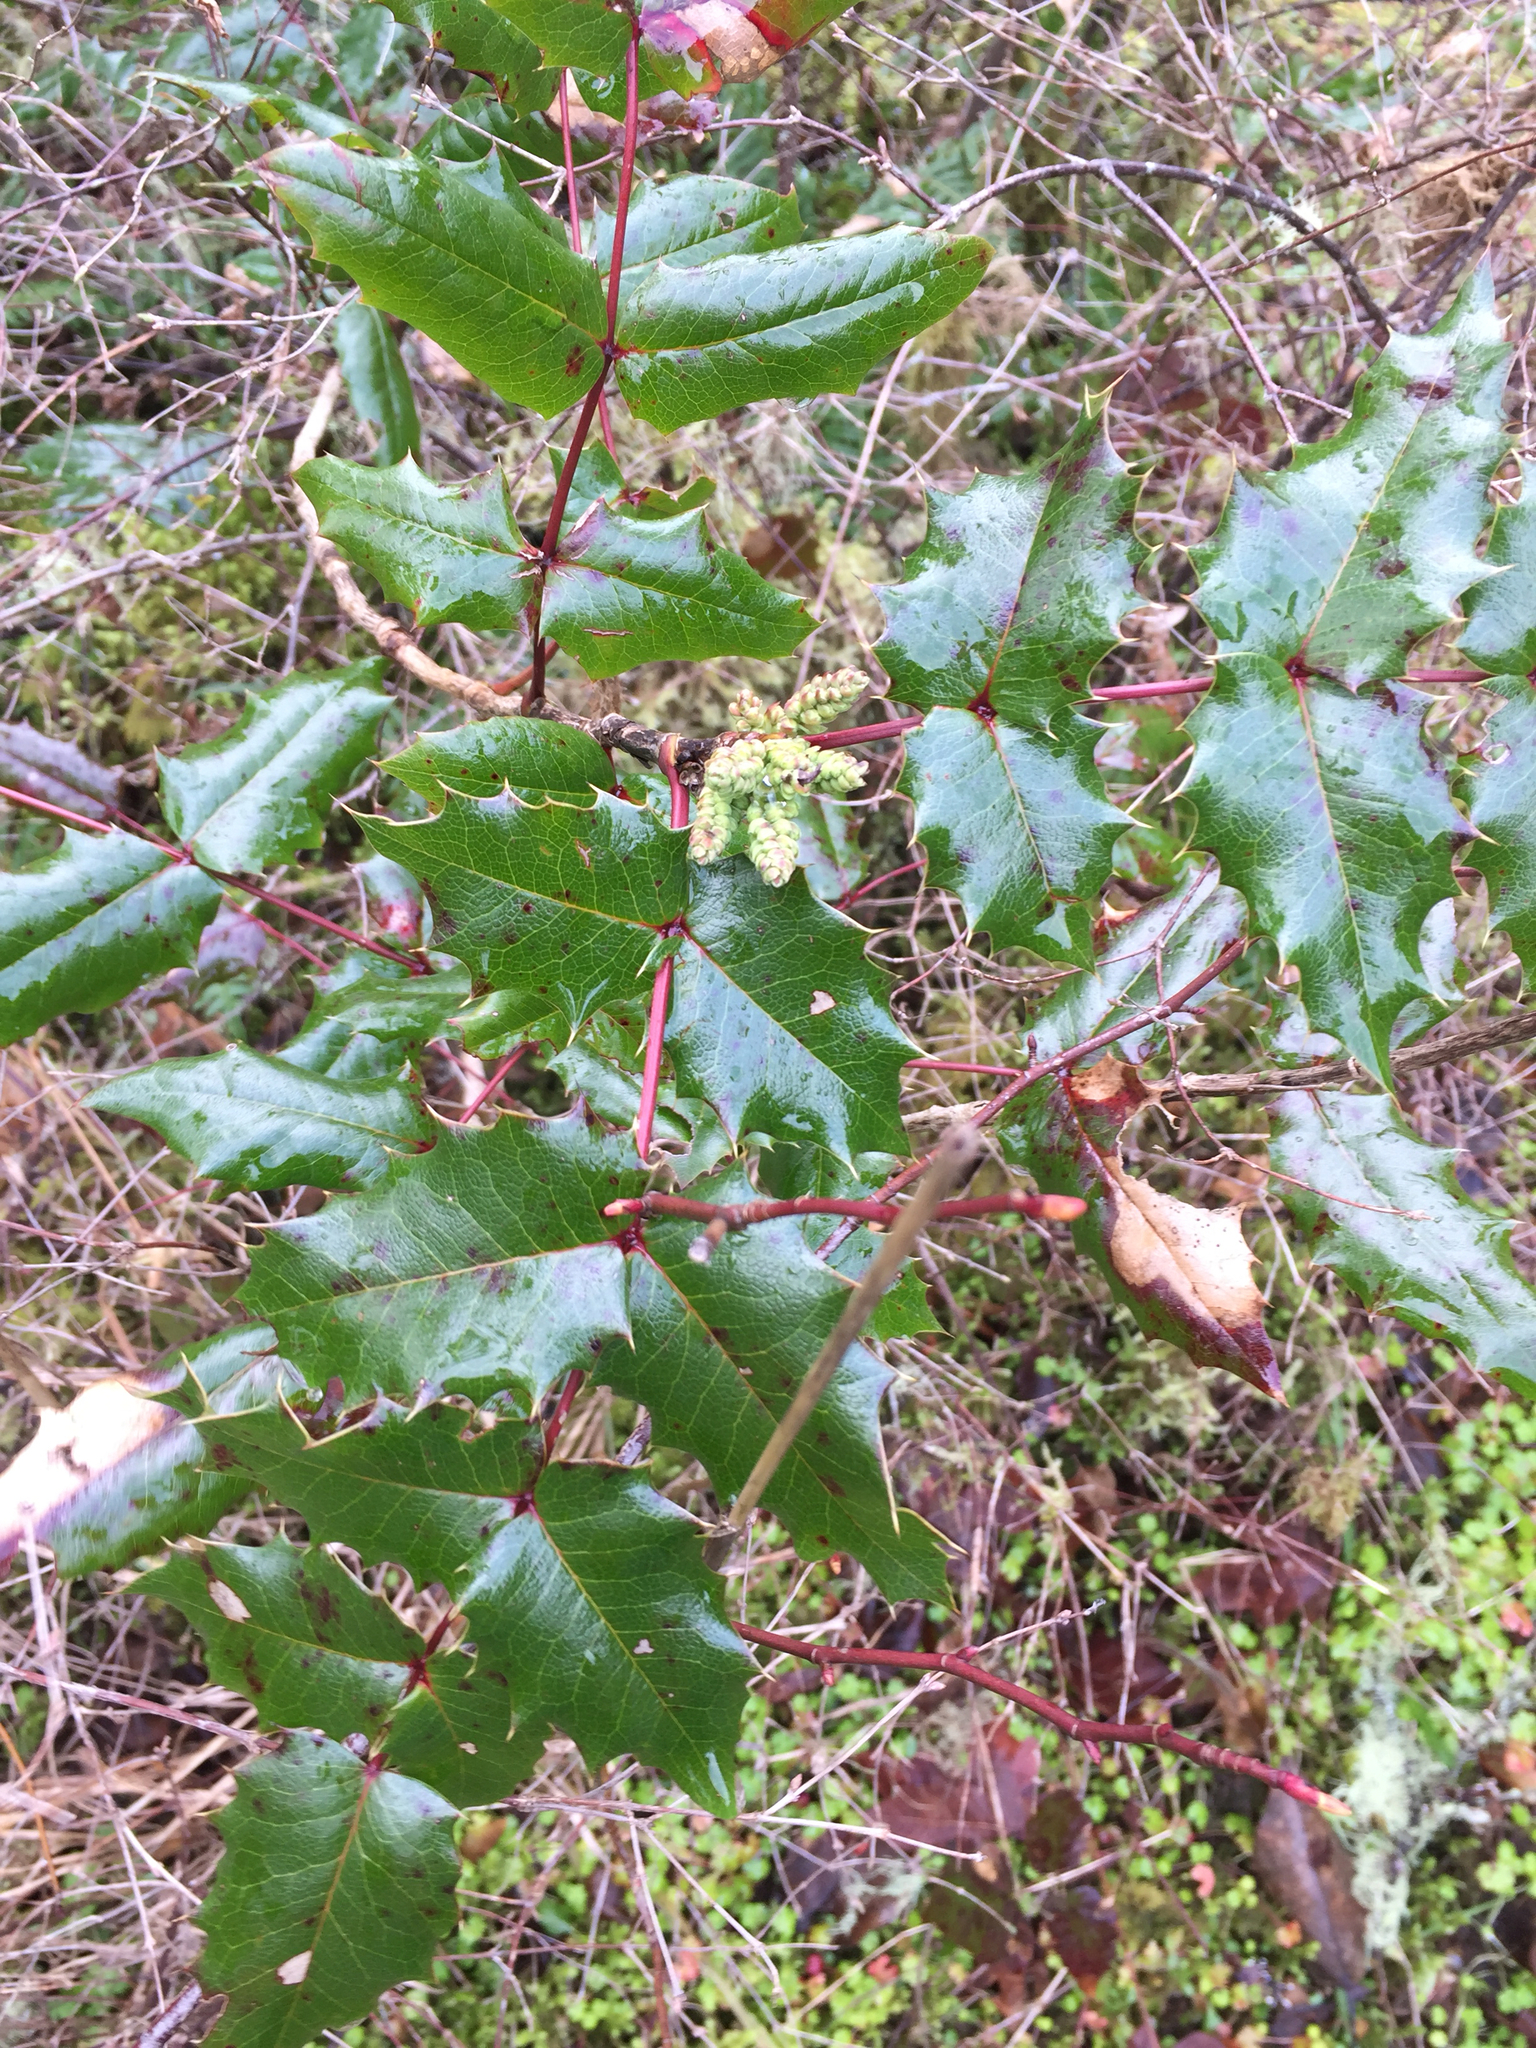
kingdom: Plantae
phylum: Tracheophyta
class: Magnoliopsida
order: Ranunculales
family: Berberidaceae
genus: Mahonia
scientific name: Mahonia aquifolium
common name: Oregon-grape
